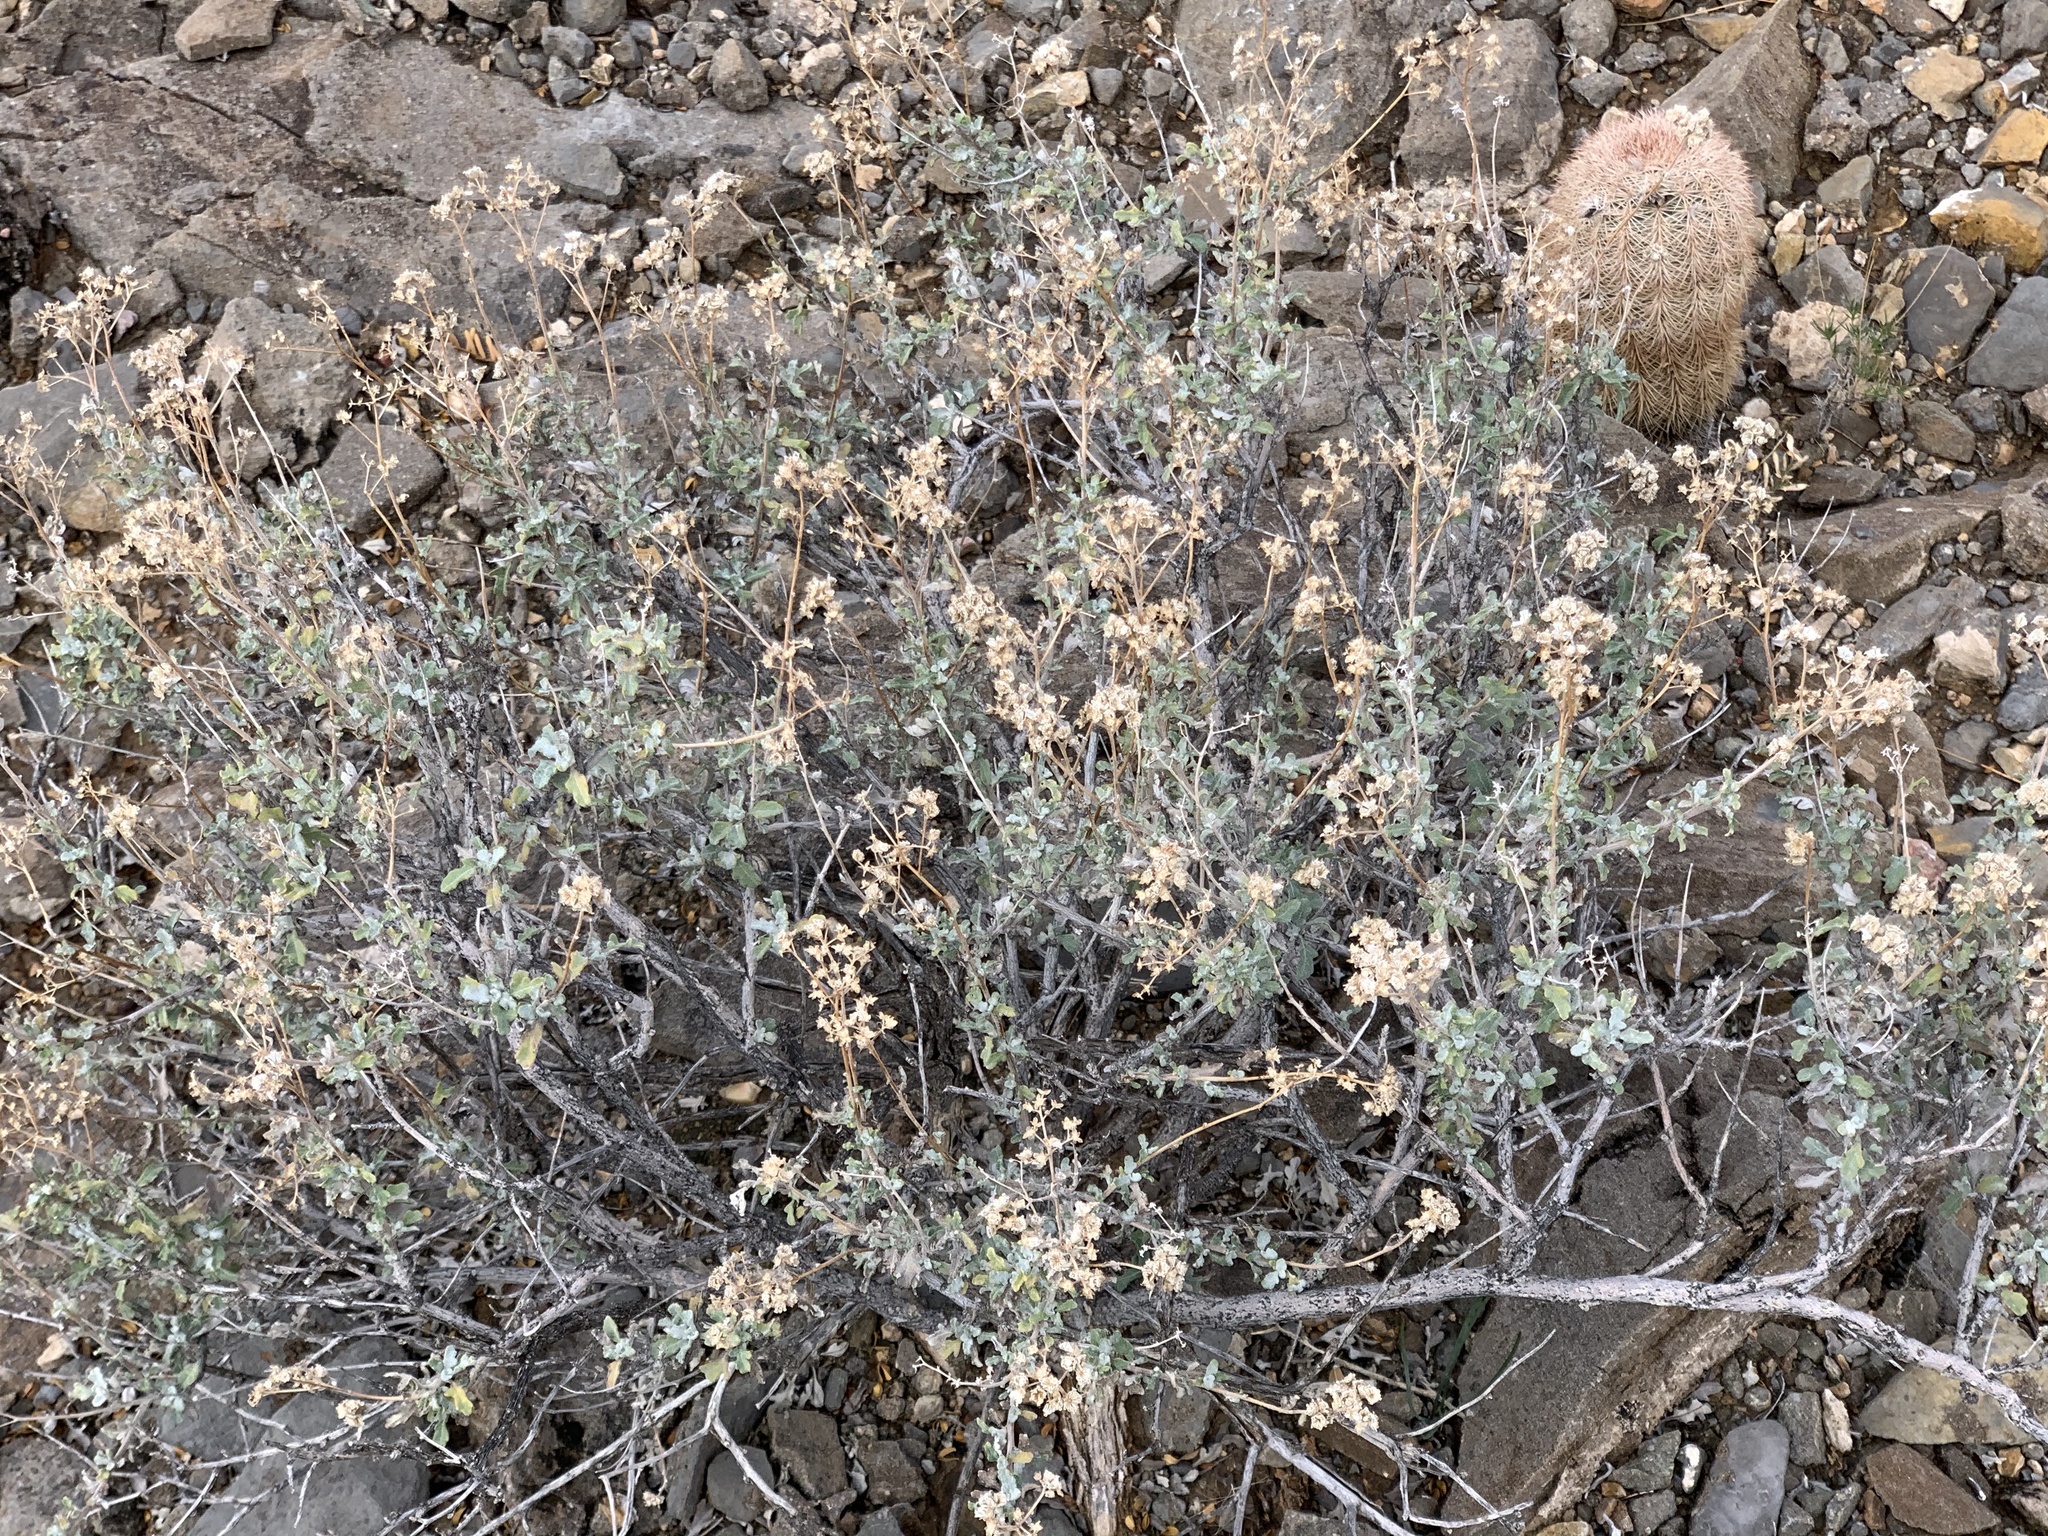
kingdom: Plantae
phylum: Tracheophyta
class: Magnoliopsida
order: Asterales
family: Asteraceae
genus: Parthenium
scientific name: Parthenium incanum
